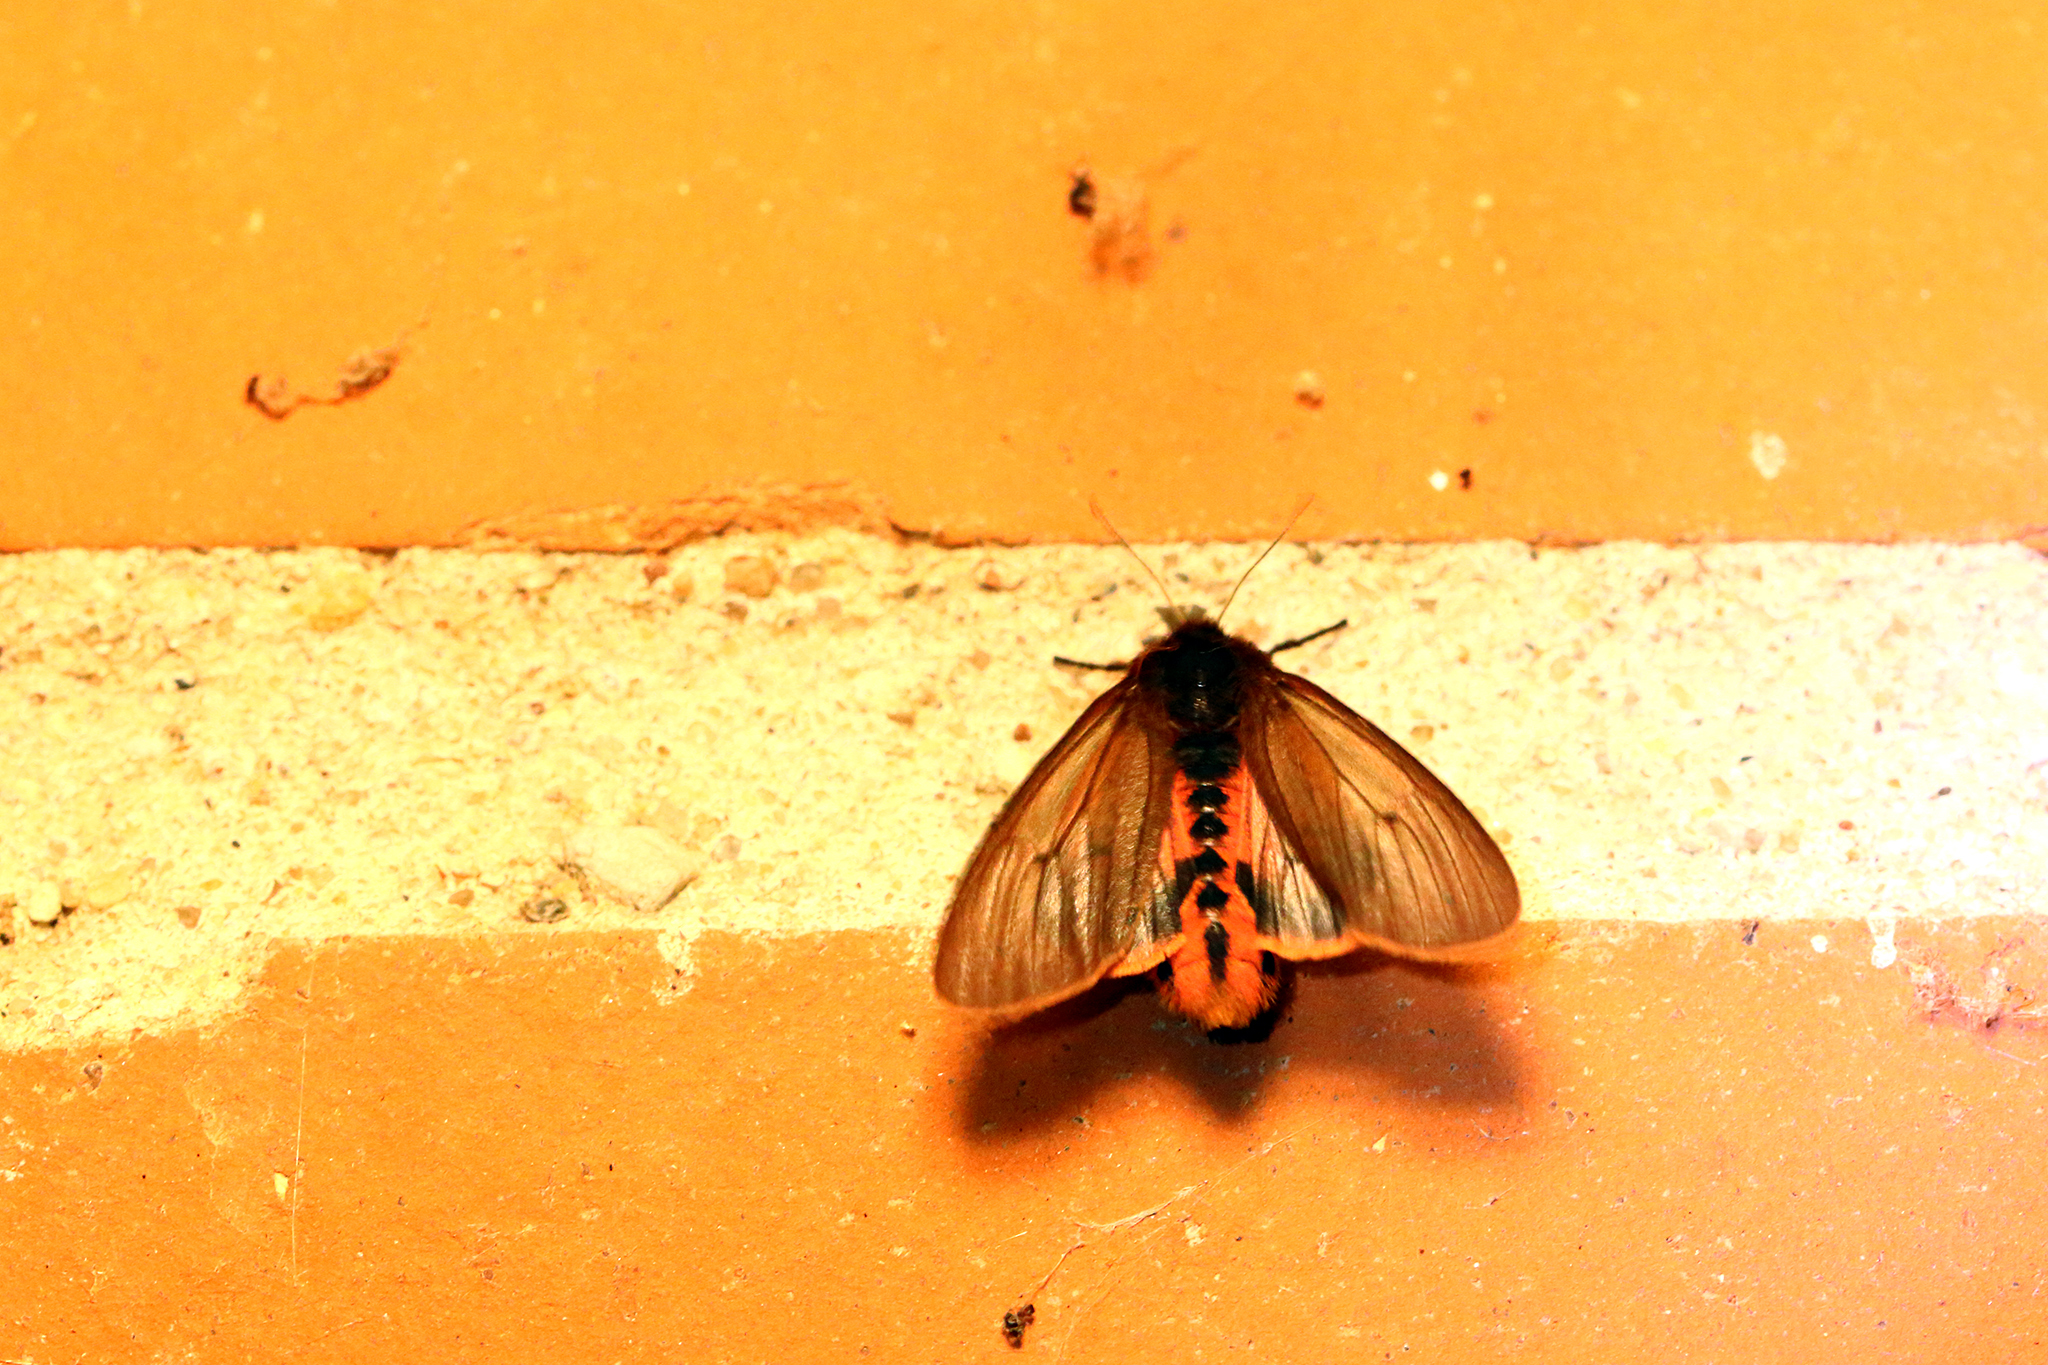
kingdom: Animalia
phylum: Arthropoda
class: Insecta
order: Lepidoptera
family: Erebidae
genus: Phragmatobia
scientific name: Phragmatobia fuliginosa
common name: Ruby tiger
